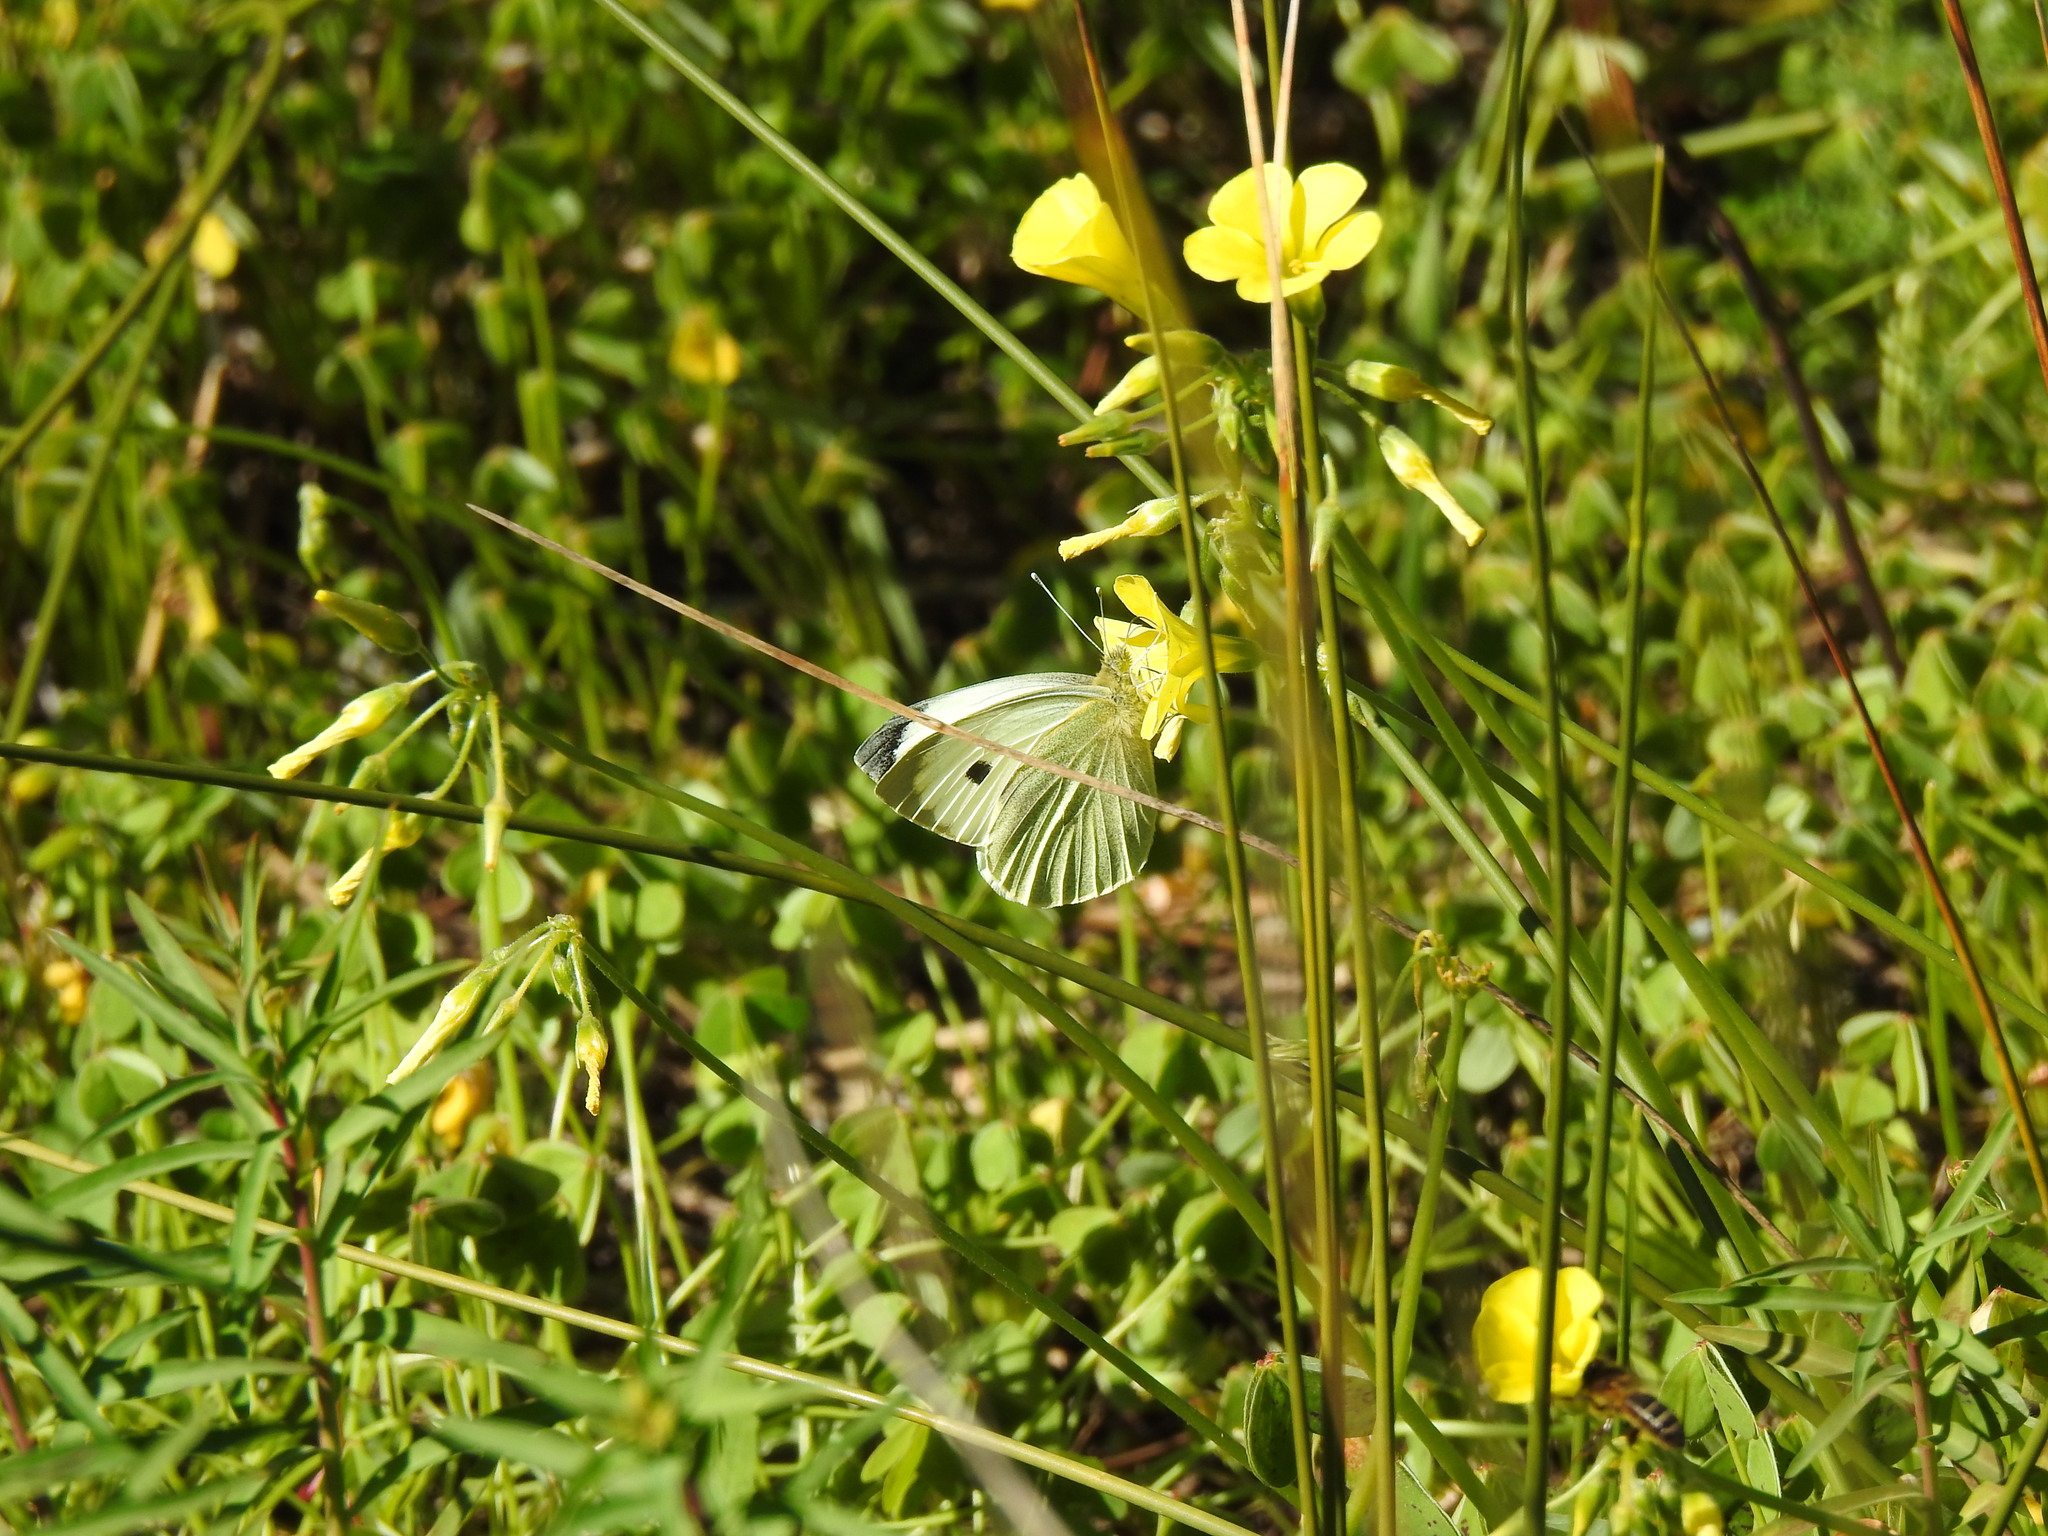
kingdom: Animalia
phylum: Arthropoda
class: Insecta
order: Lepidoptera
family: Pieridae
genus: Pieris
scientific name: Pieris brassicae
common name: Large white
